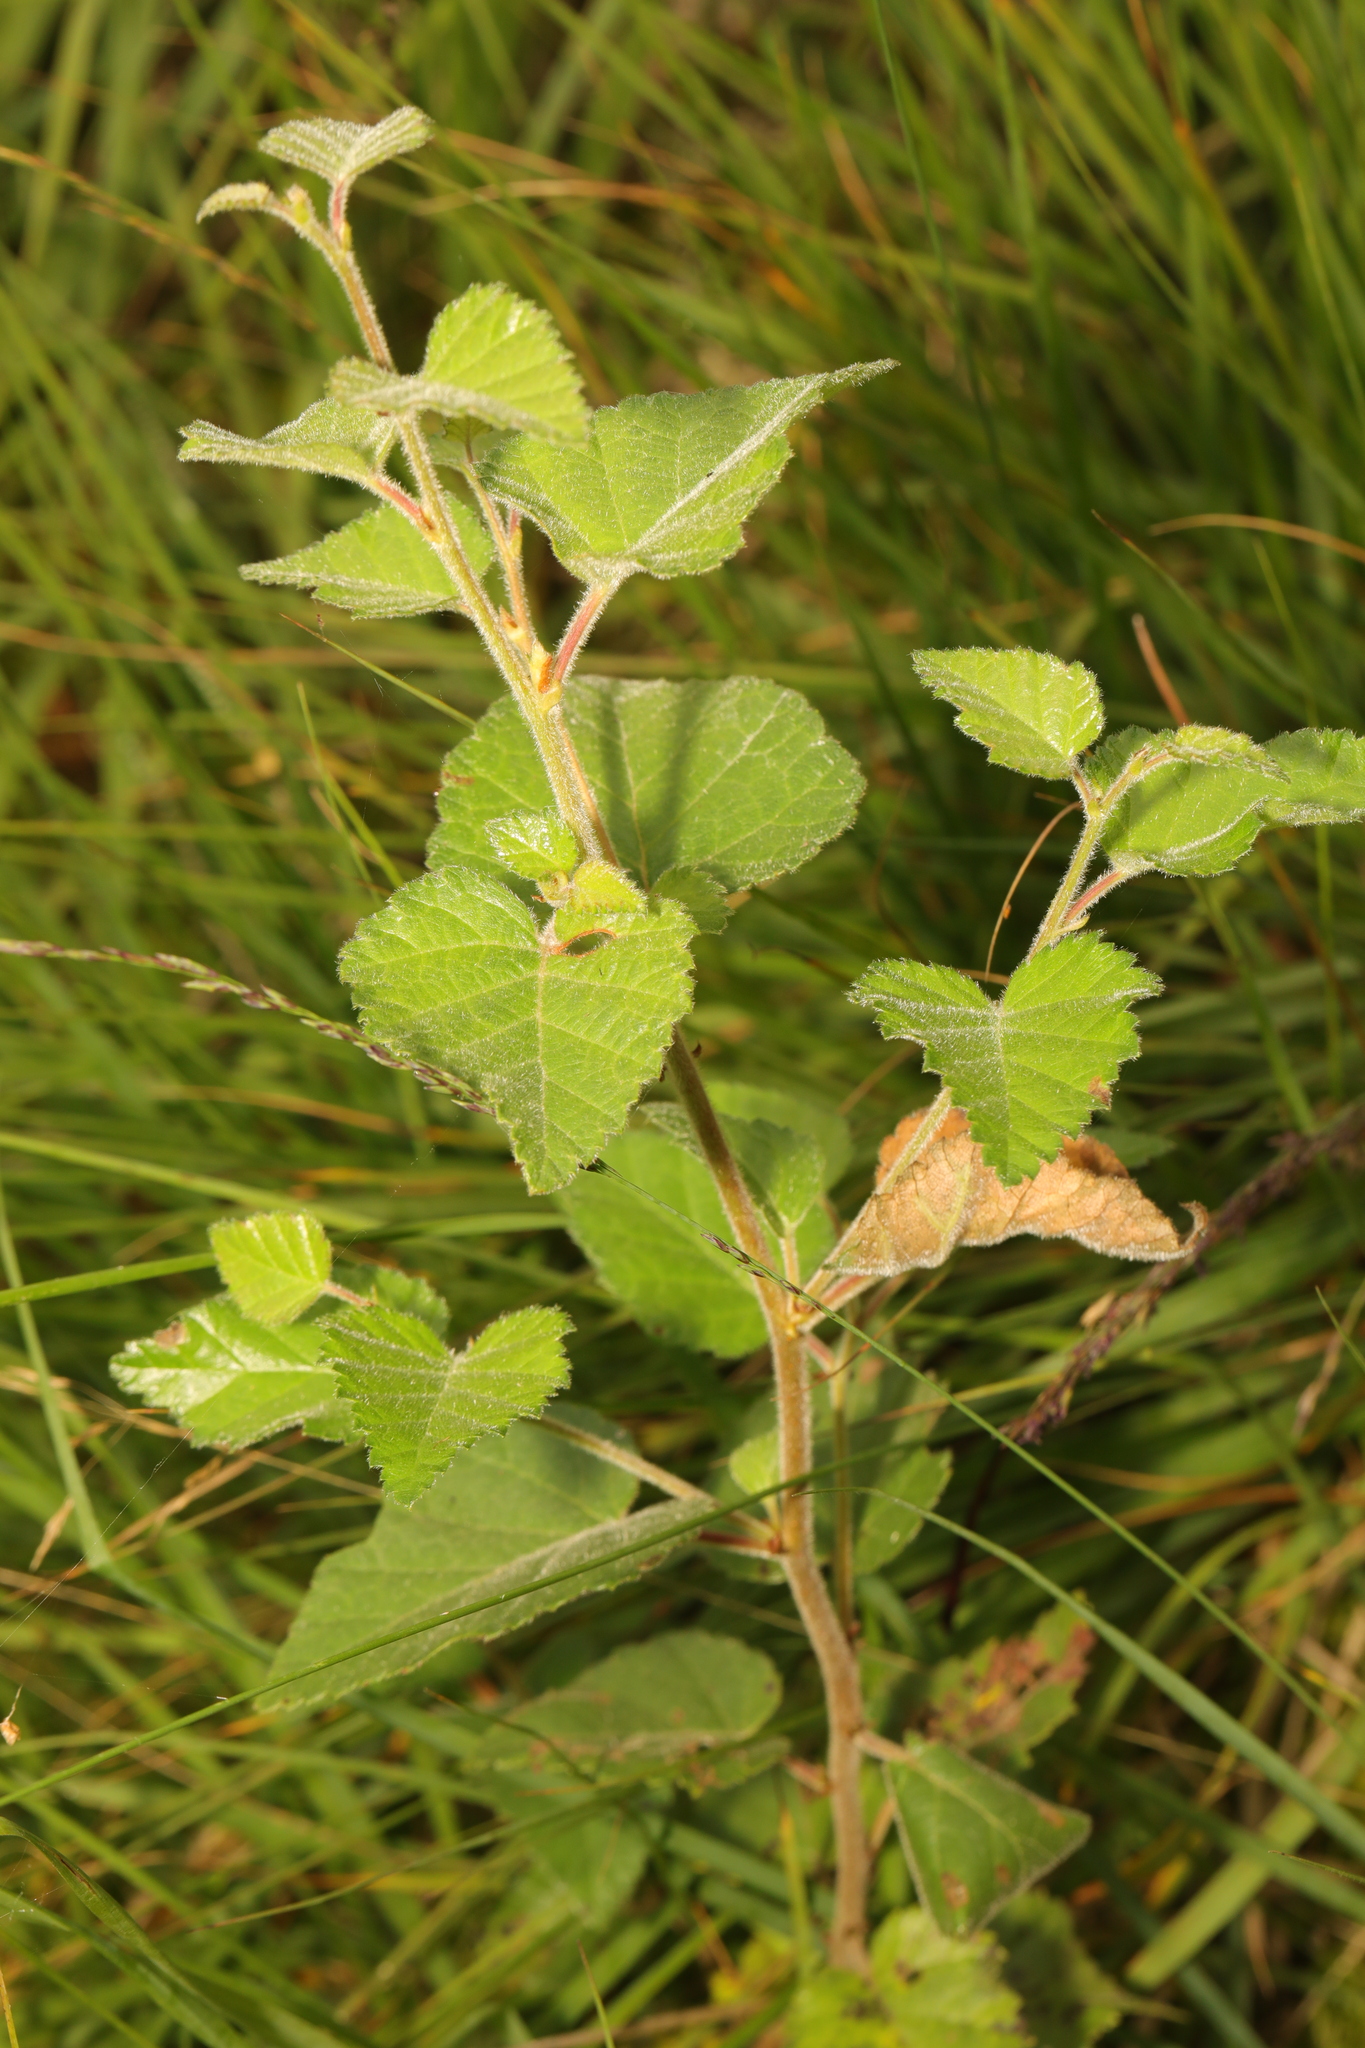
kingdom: Plantae
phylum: Tracheophyta
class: Magnoliopsida
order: Fagales
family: Betulaceae
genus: Betula
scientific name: Betula pubescens
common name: Downy birch
